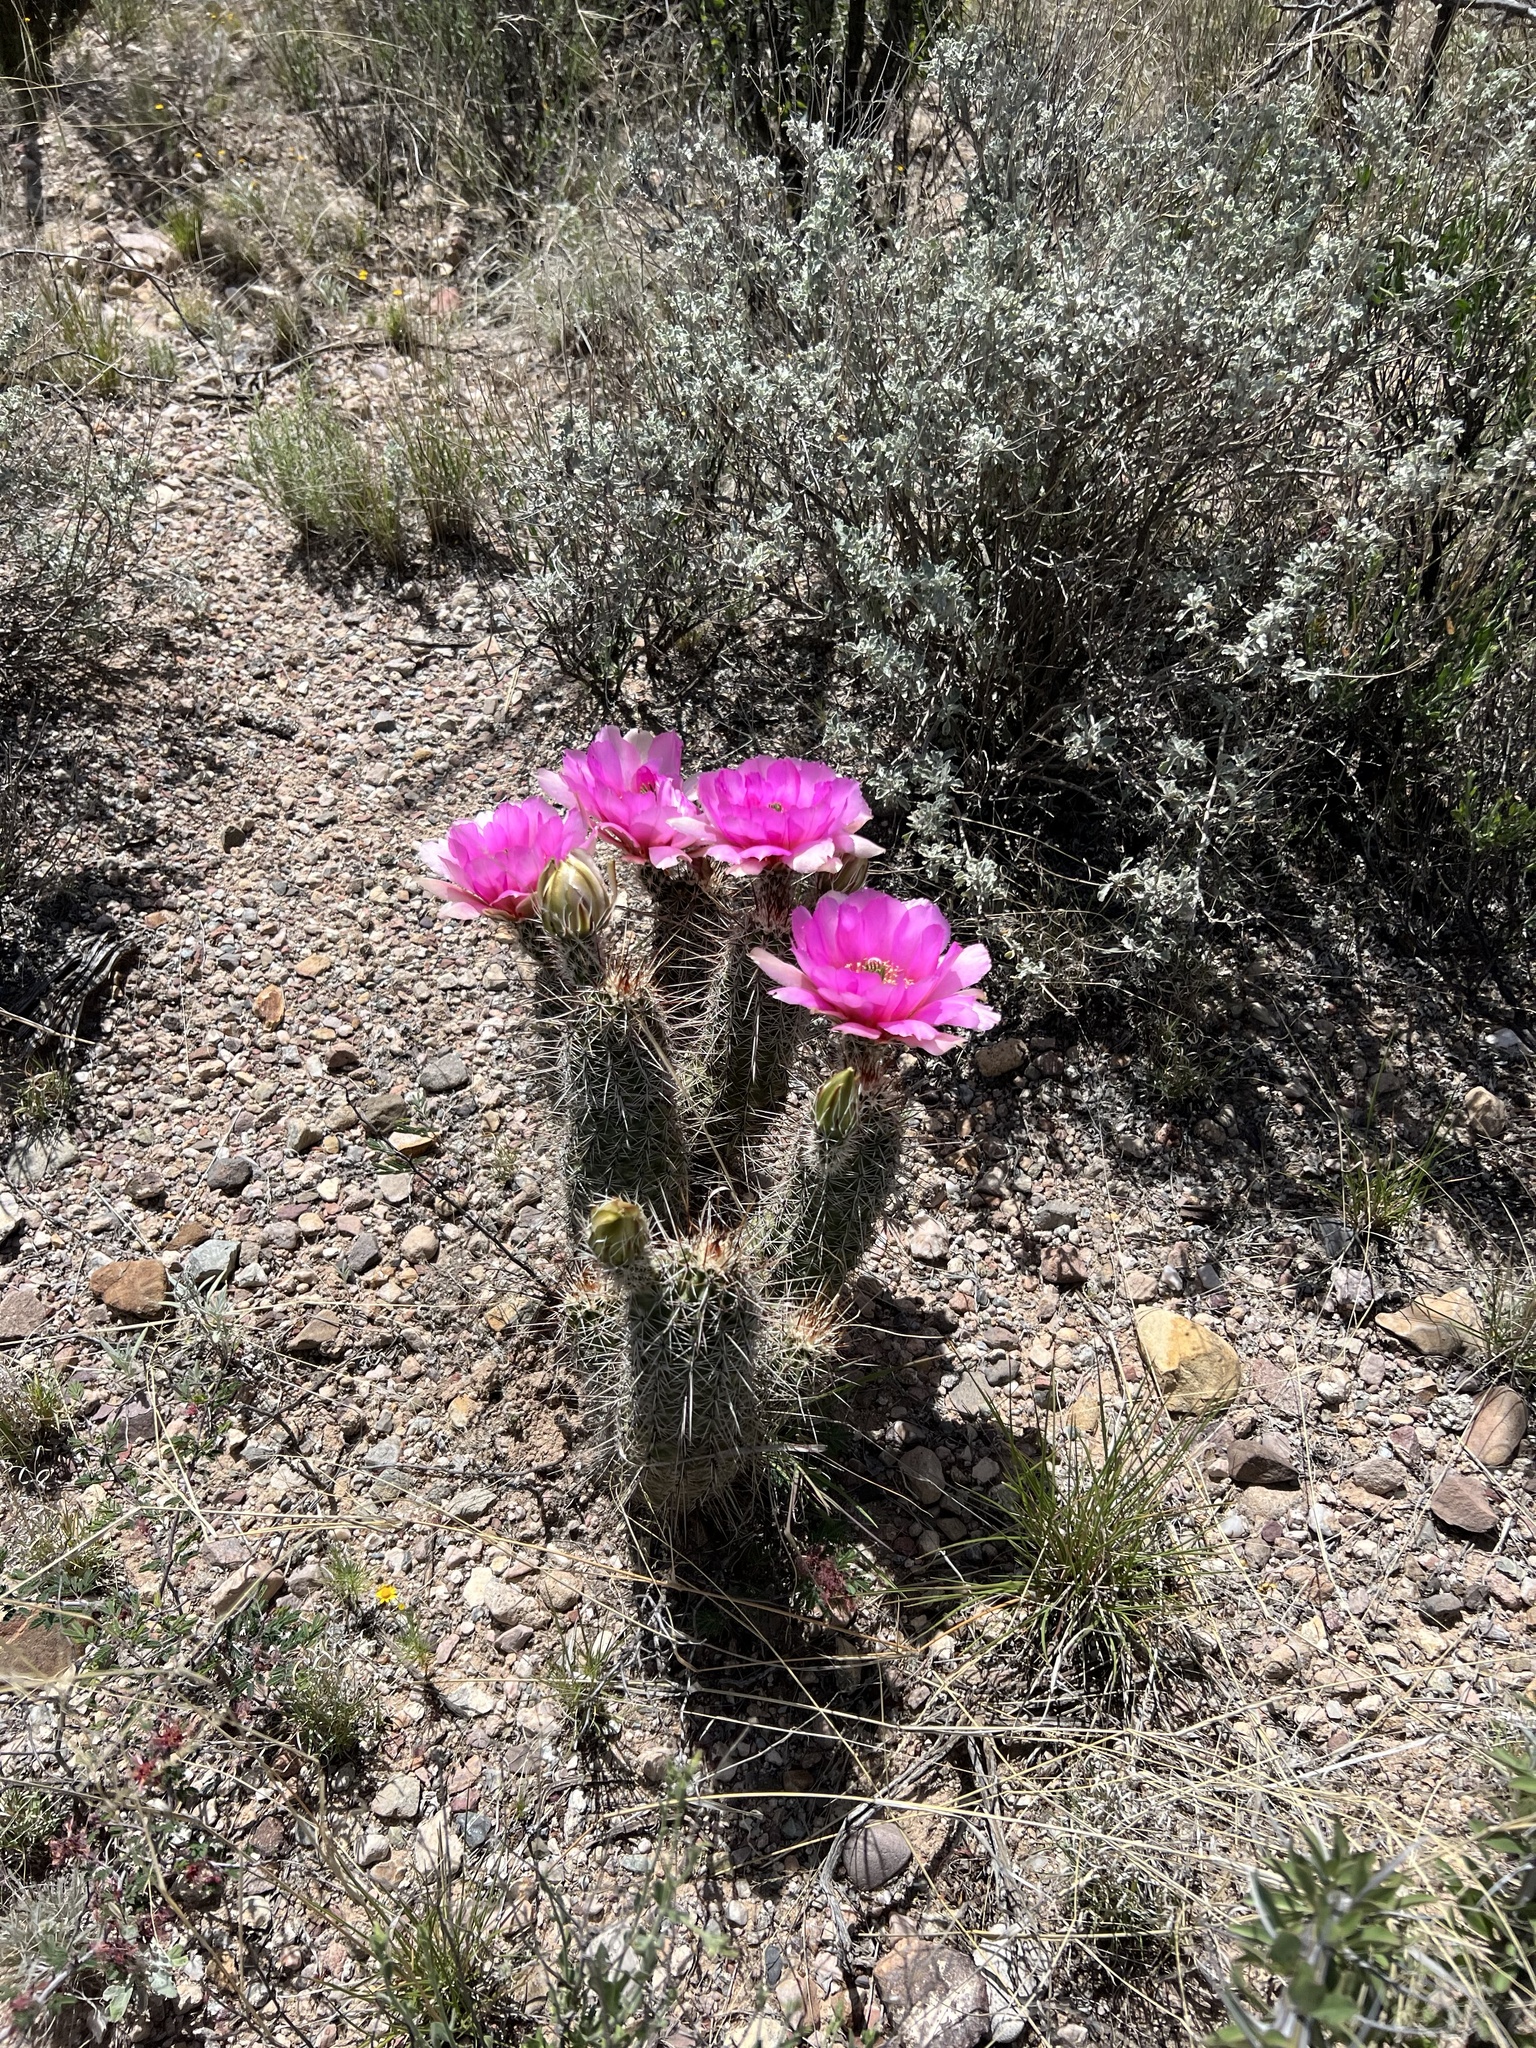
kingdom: Plantae
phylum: Tracheophyta
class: Magnoliopsida
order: Caryophyllales
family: Cactaceae
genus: Echinocereus
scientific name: Echinocereus fasciculatus
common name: Bundle hedgehog
